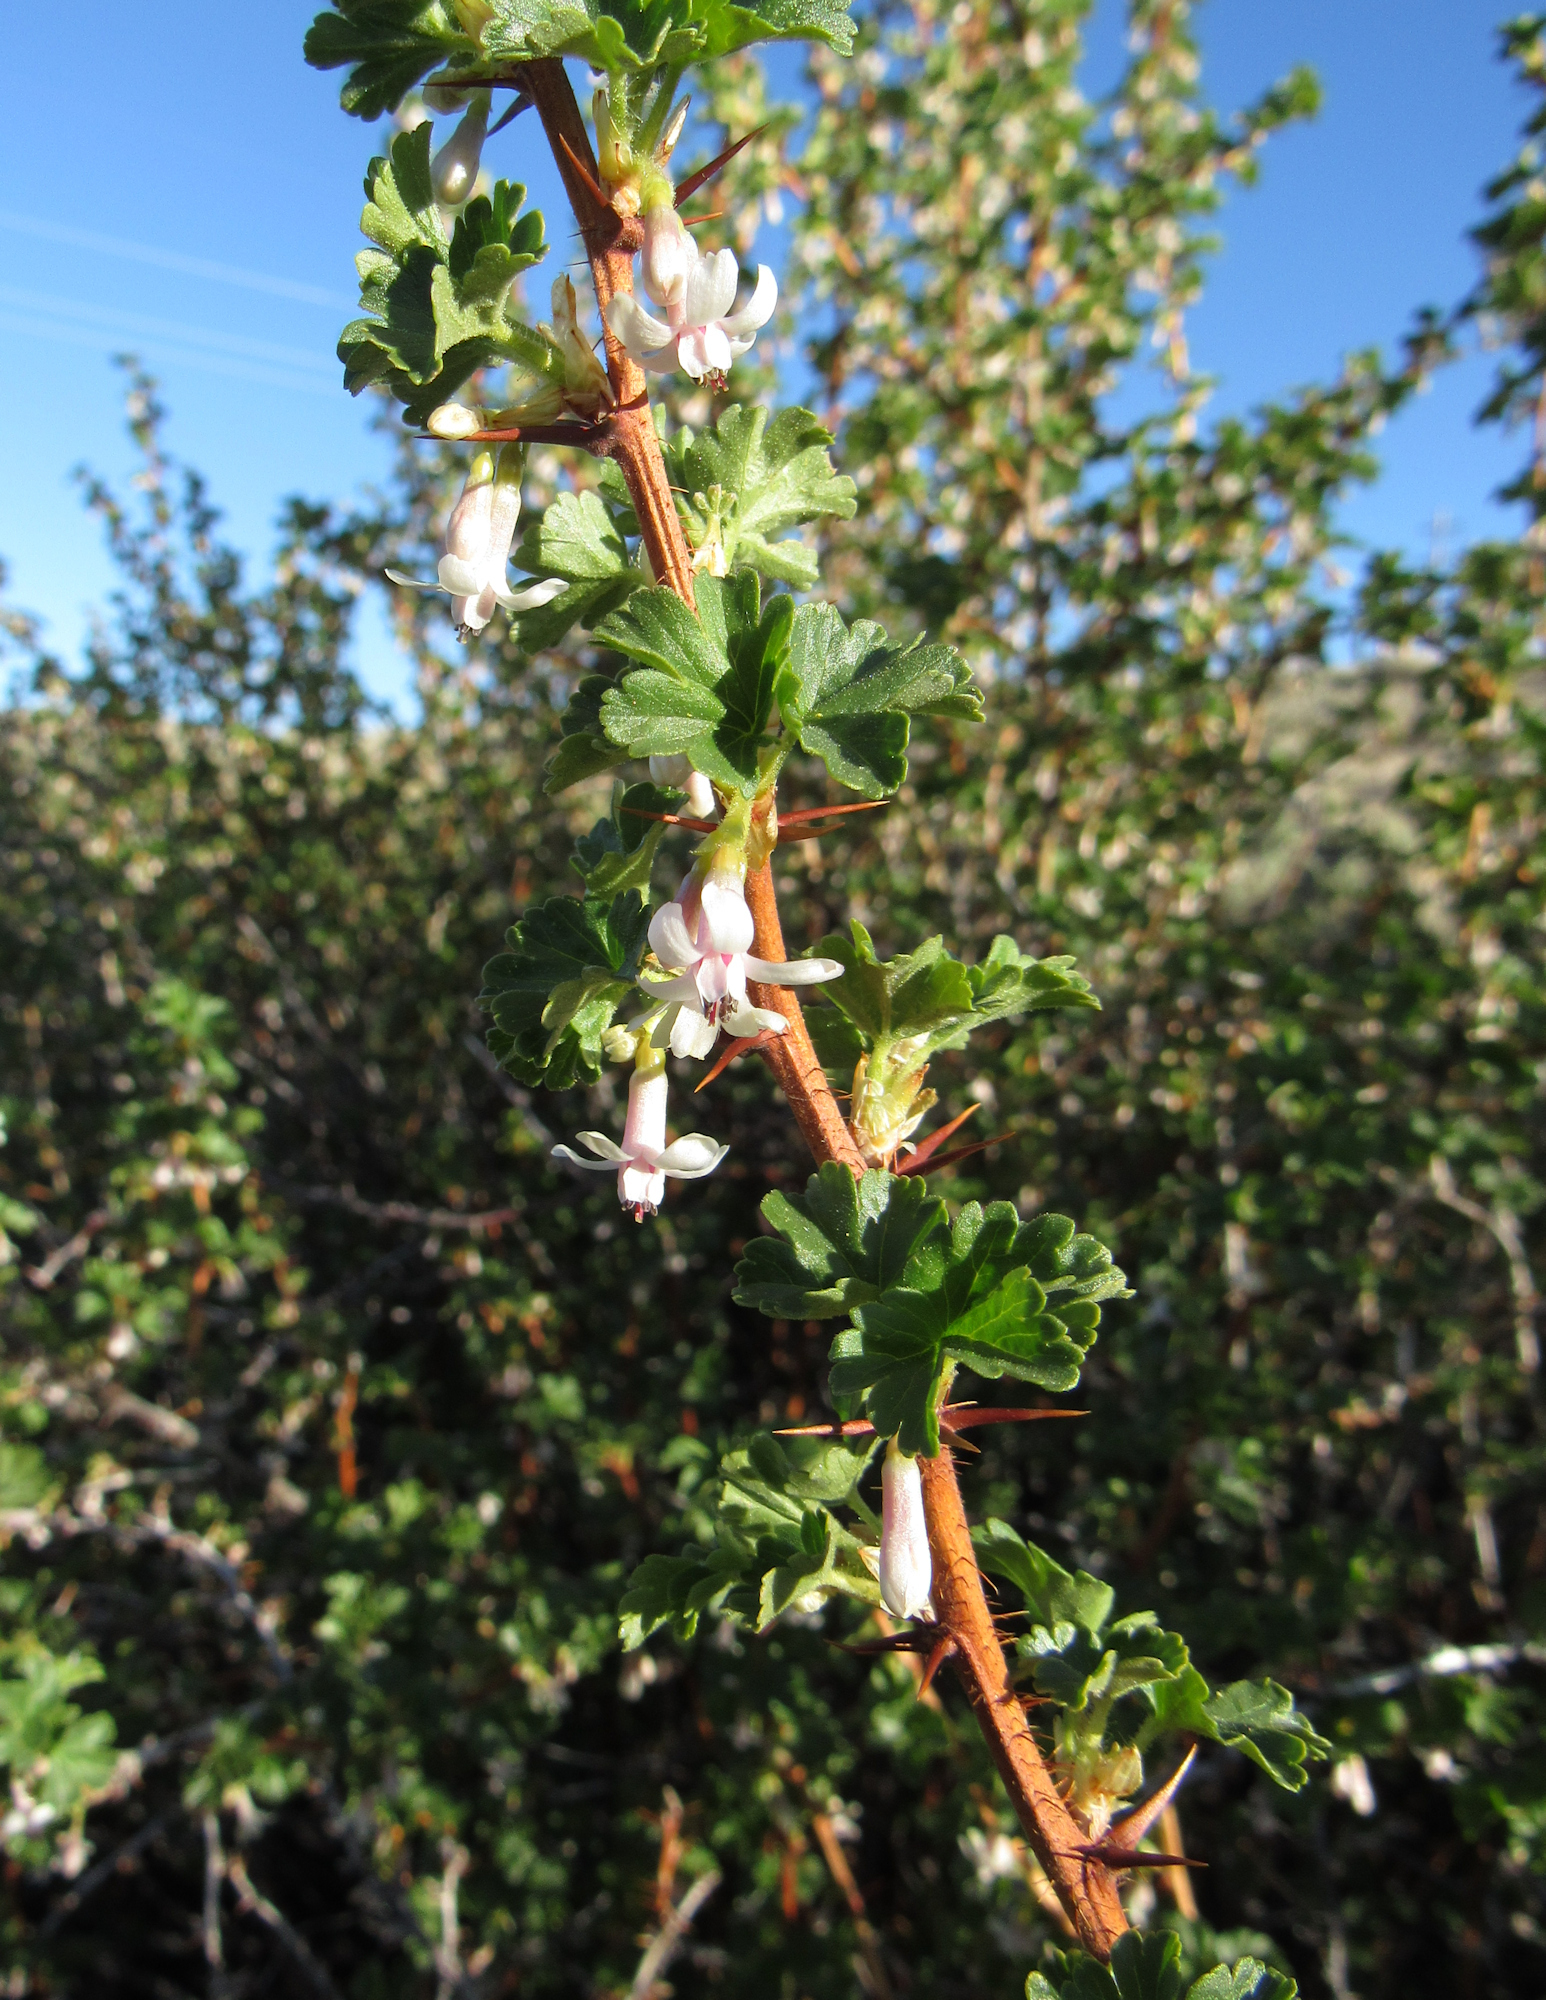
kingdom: Plantae
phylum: Tracheophyta
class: Magnoliopsida
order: Saxifragales
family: Grossulariaceae
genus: Ribes
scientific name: Ribes oxyacanthoides
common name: Northern gooseberry
